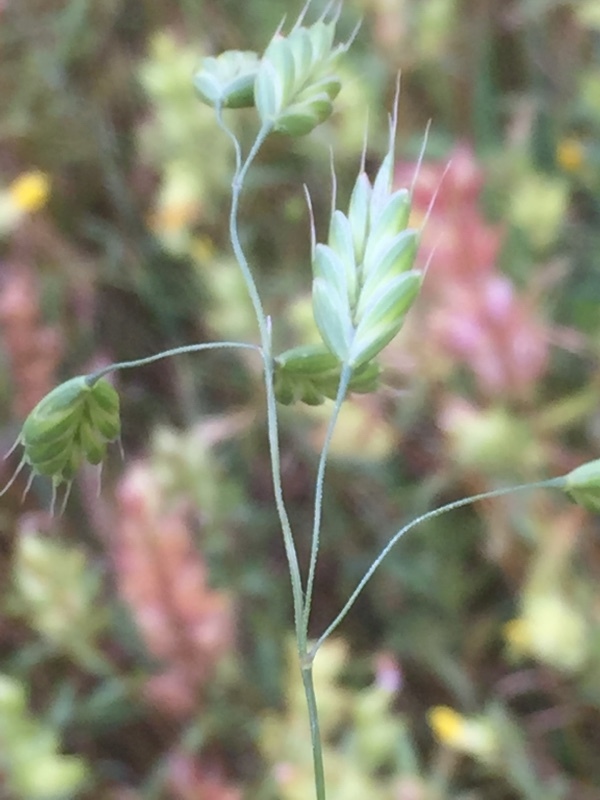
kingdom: Plantae
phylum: Tracheophyta
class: Liliopsida
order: Poales
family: Poaceae
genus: Bromus
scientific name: Bromus secalinus
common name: Rye brome
